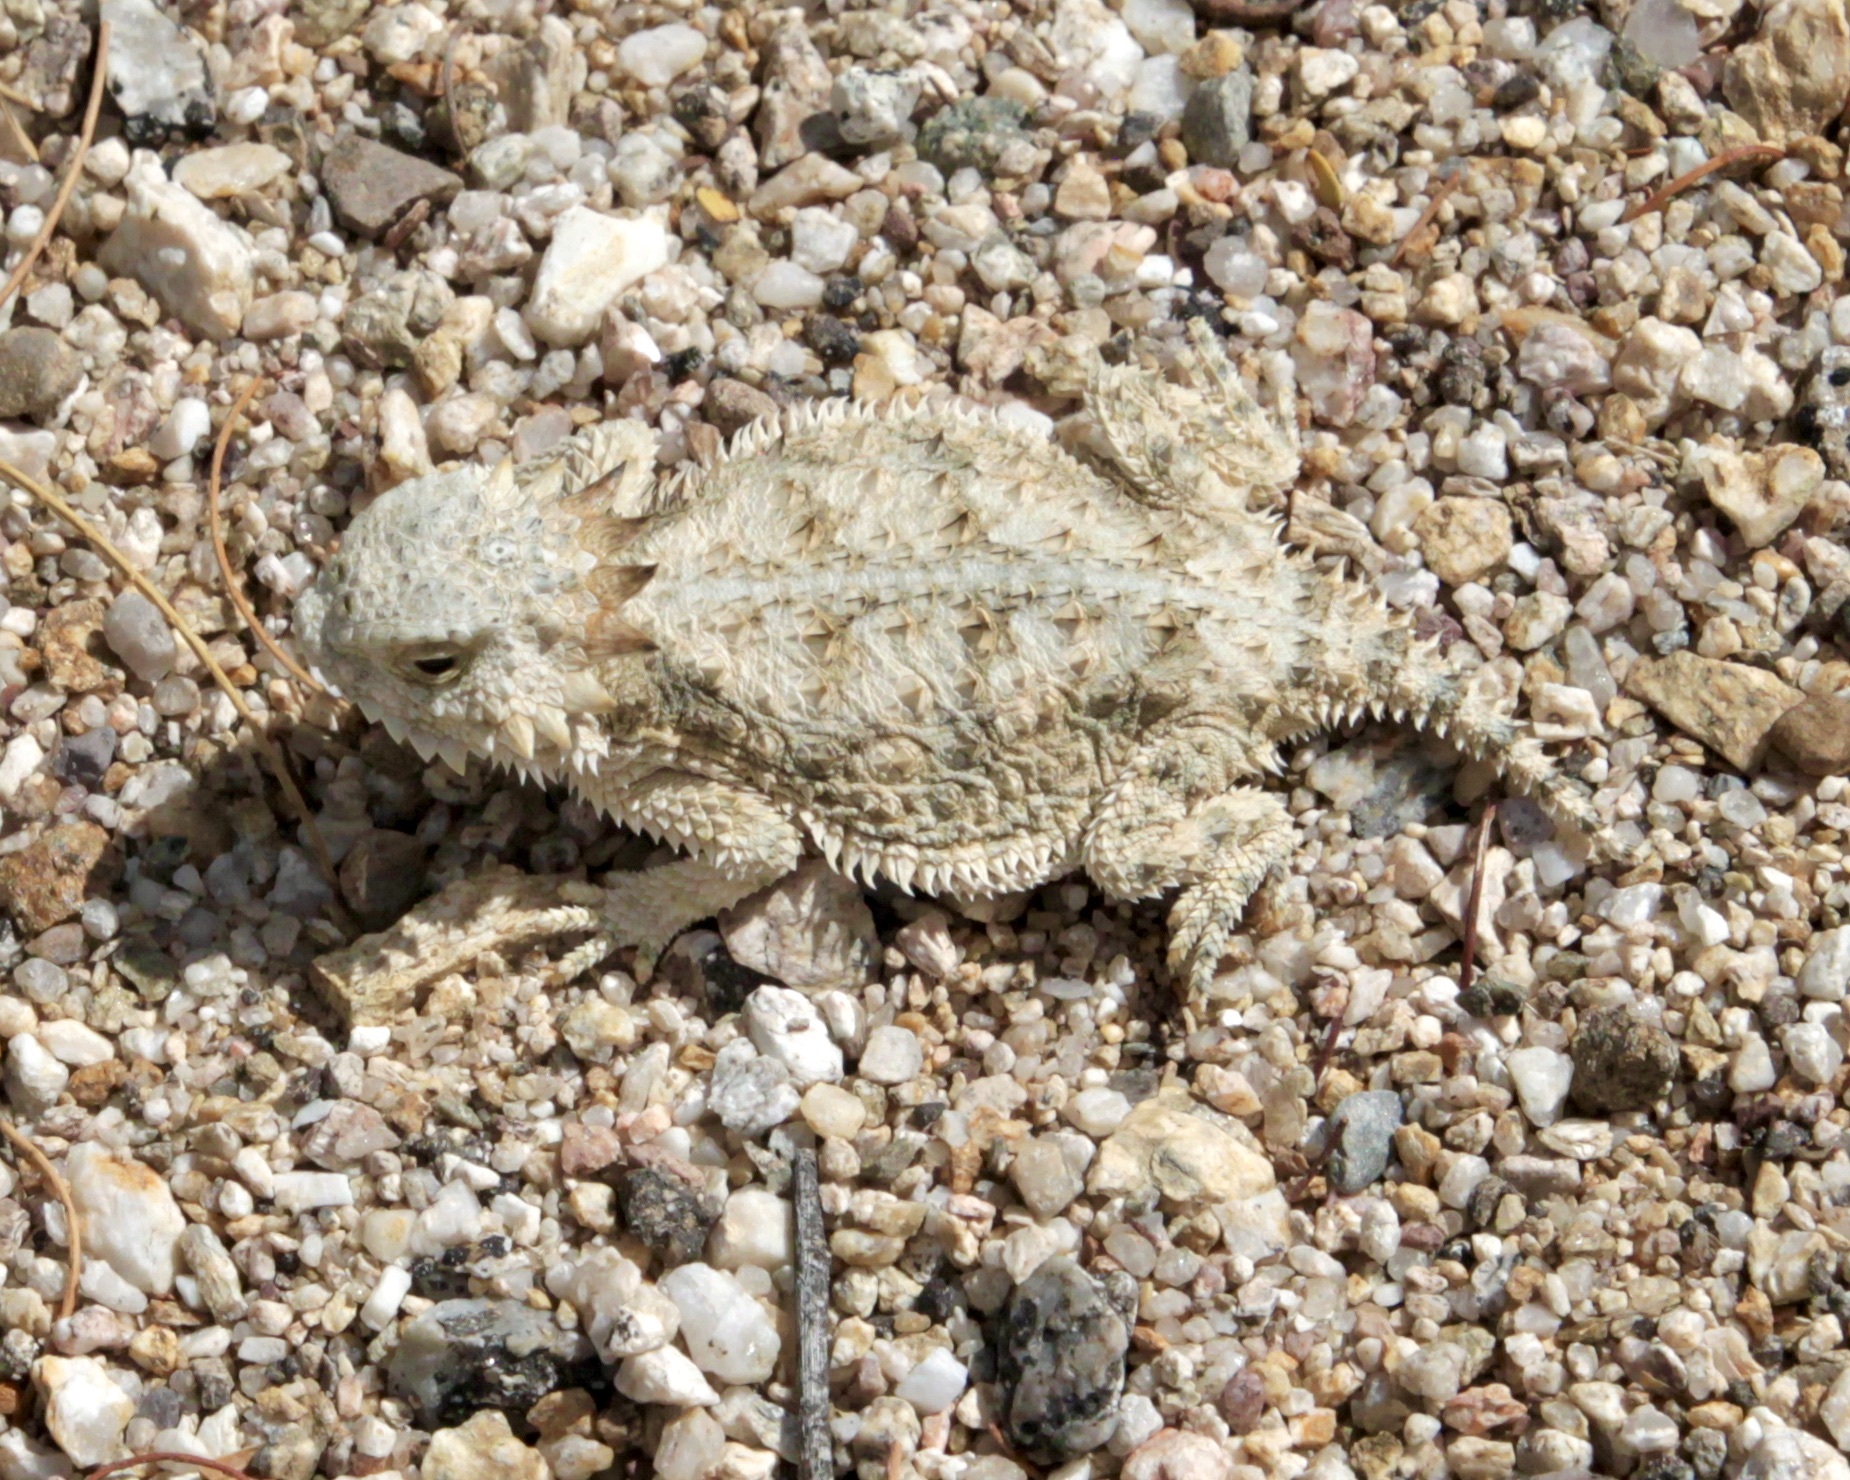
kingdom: Animalia
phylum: Chordata
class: Squamata
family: Phrynosomatidae
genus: Phrynosoma
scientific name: Phrynosoma solare
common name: Regal horned lizard
